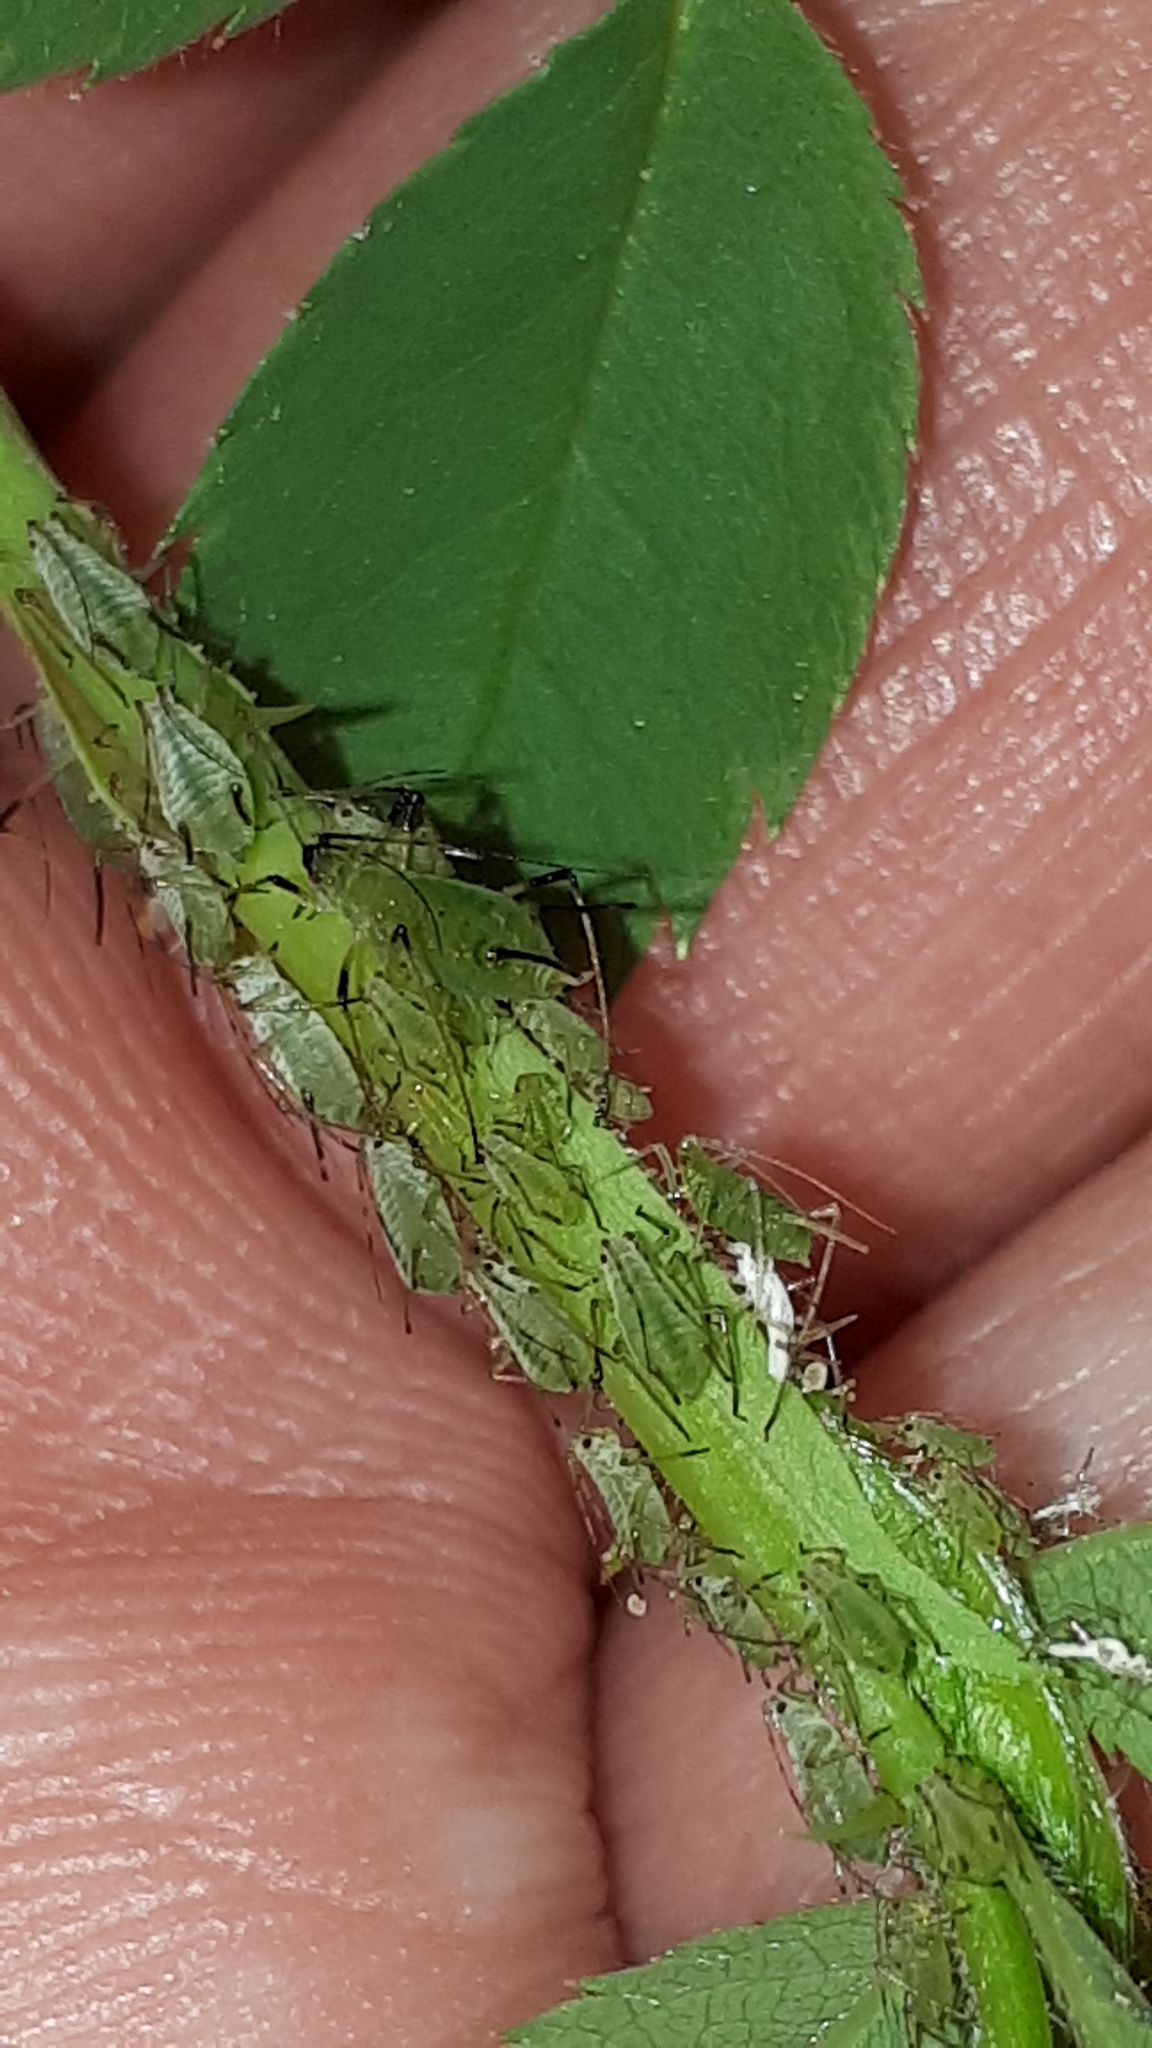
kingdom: Animalia
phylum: Arthropoda
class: Insecta
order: Hemiptera
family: Aphididae
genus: Macrosiphum
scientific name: Macrosiphum rosae
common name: Rose aphid
